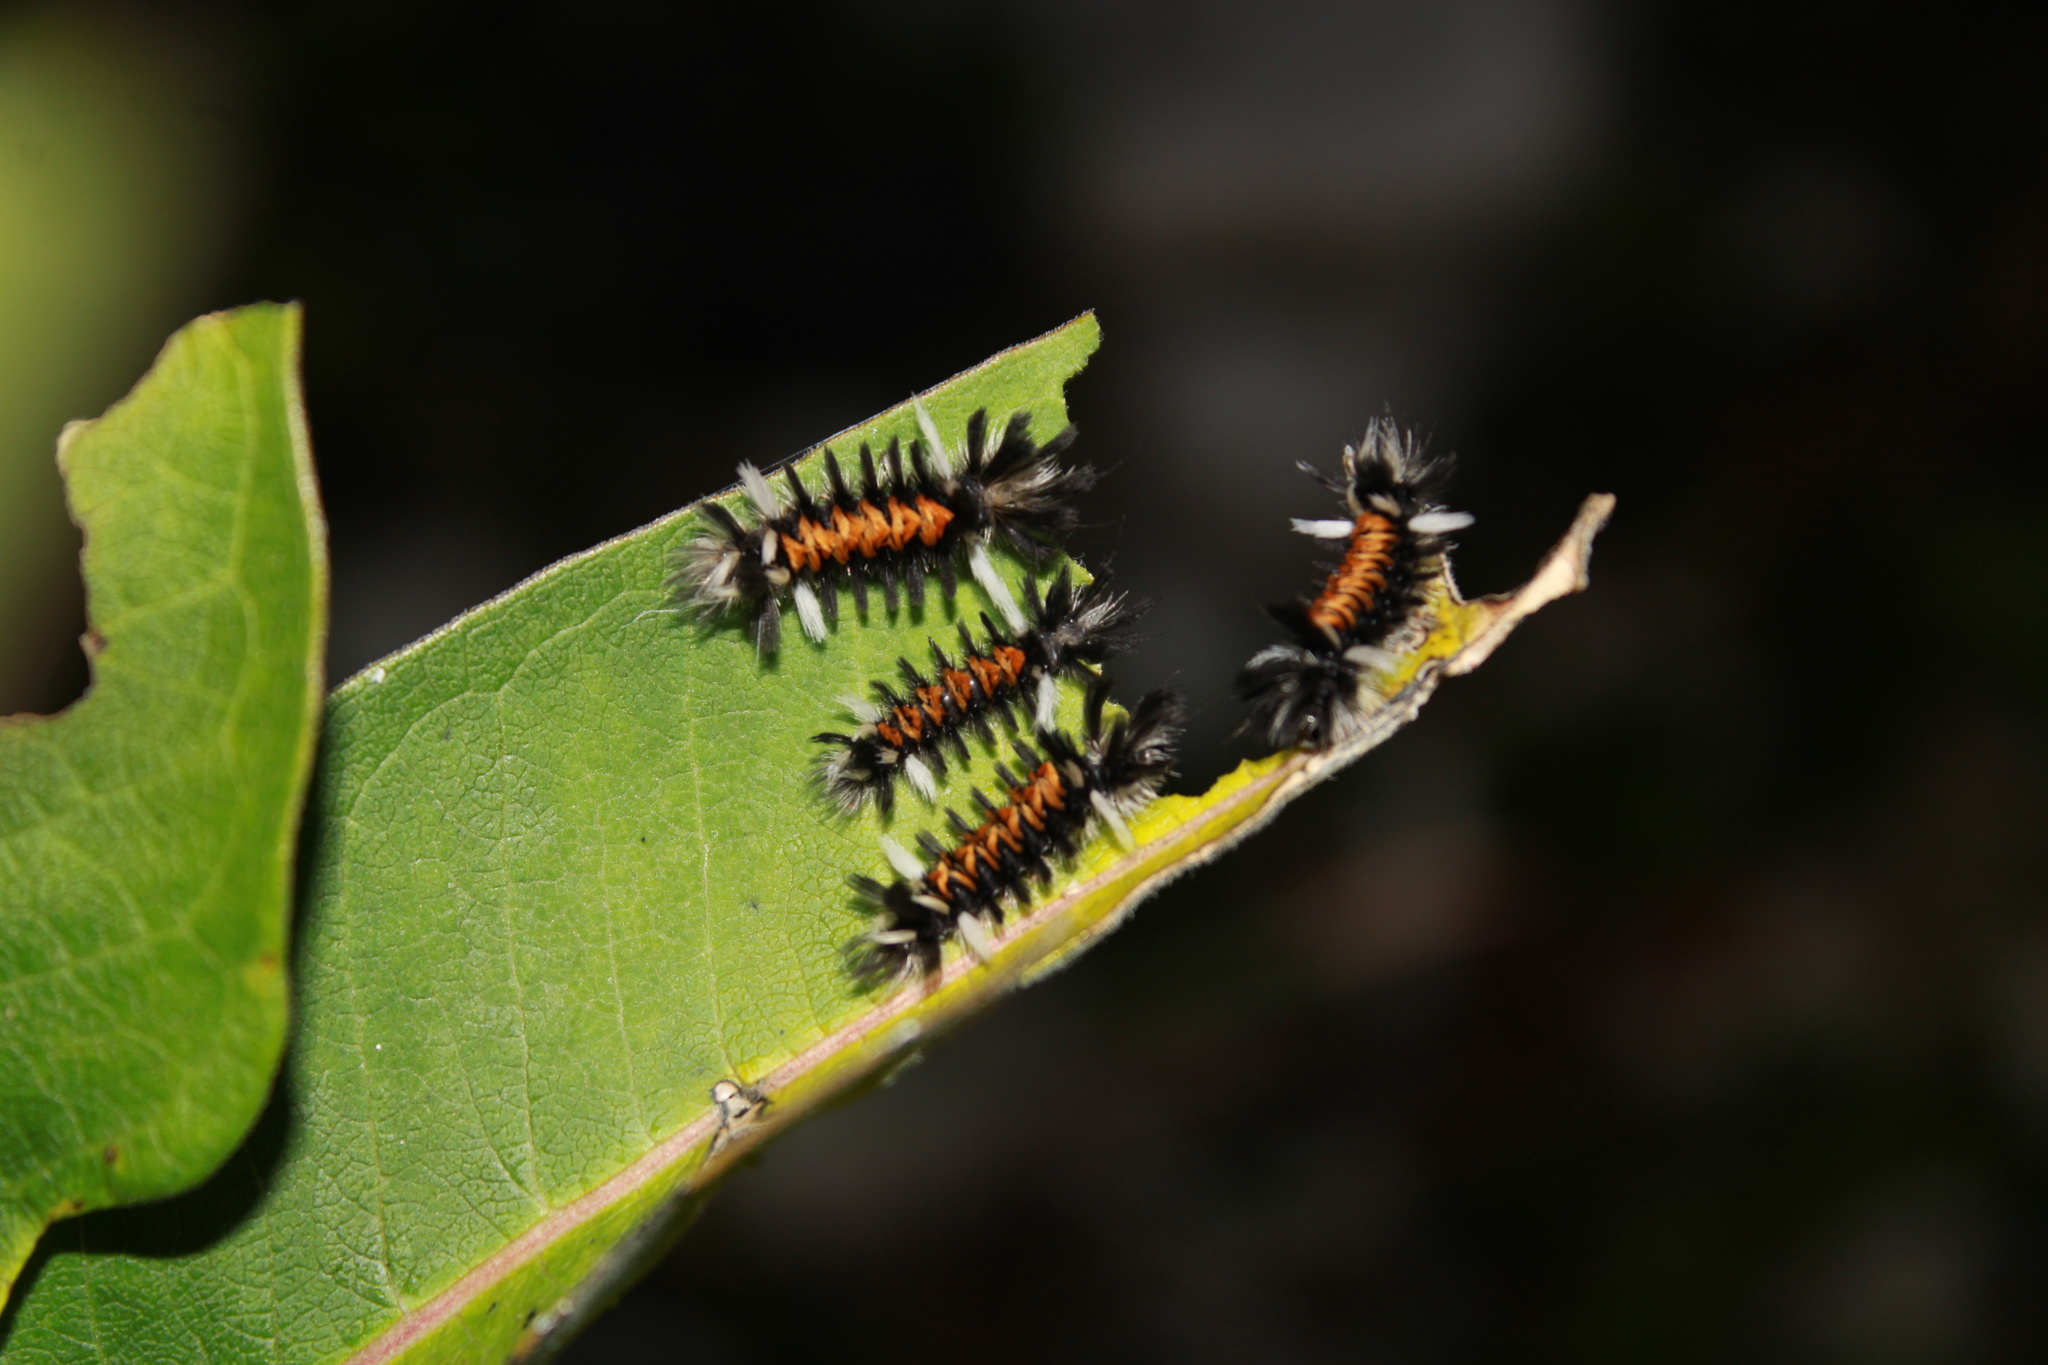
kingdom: Animalia
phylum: Arthropoda
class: Insecta
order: Lepidoptera
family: Erebidae
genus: Euchaetes
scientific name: Euchaetes egle
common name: Milkweed tussock moth
